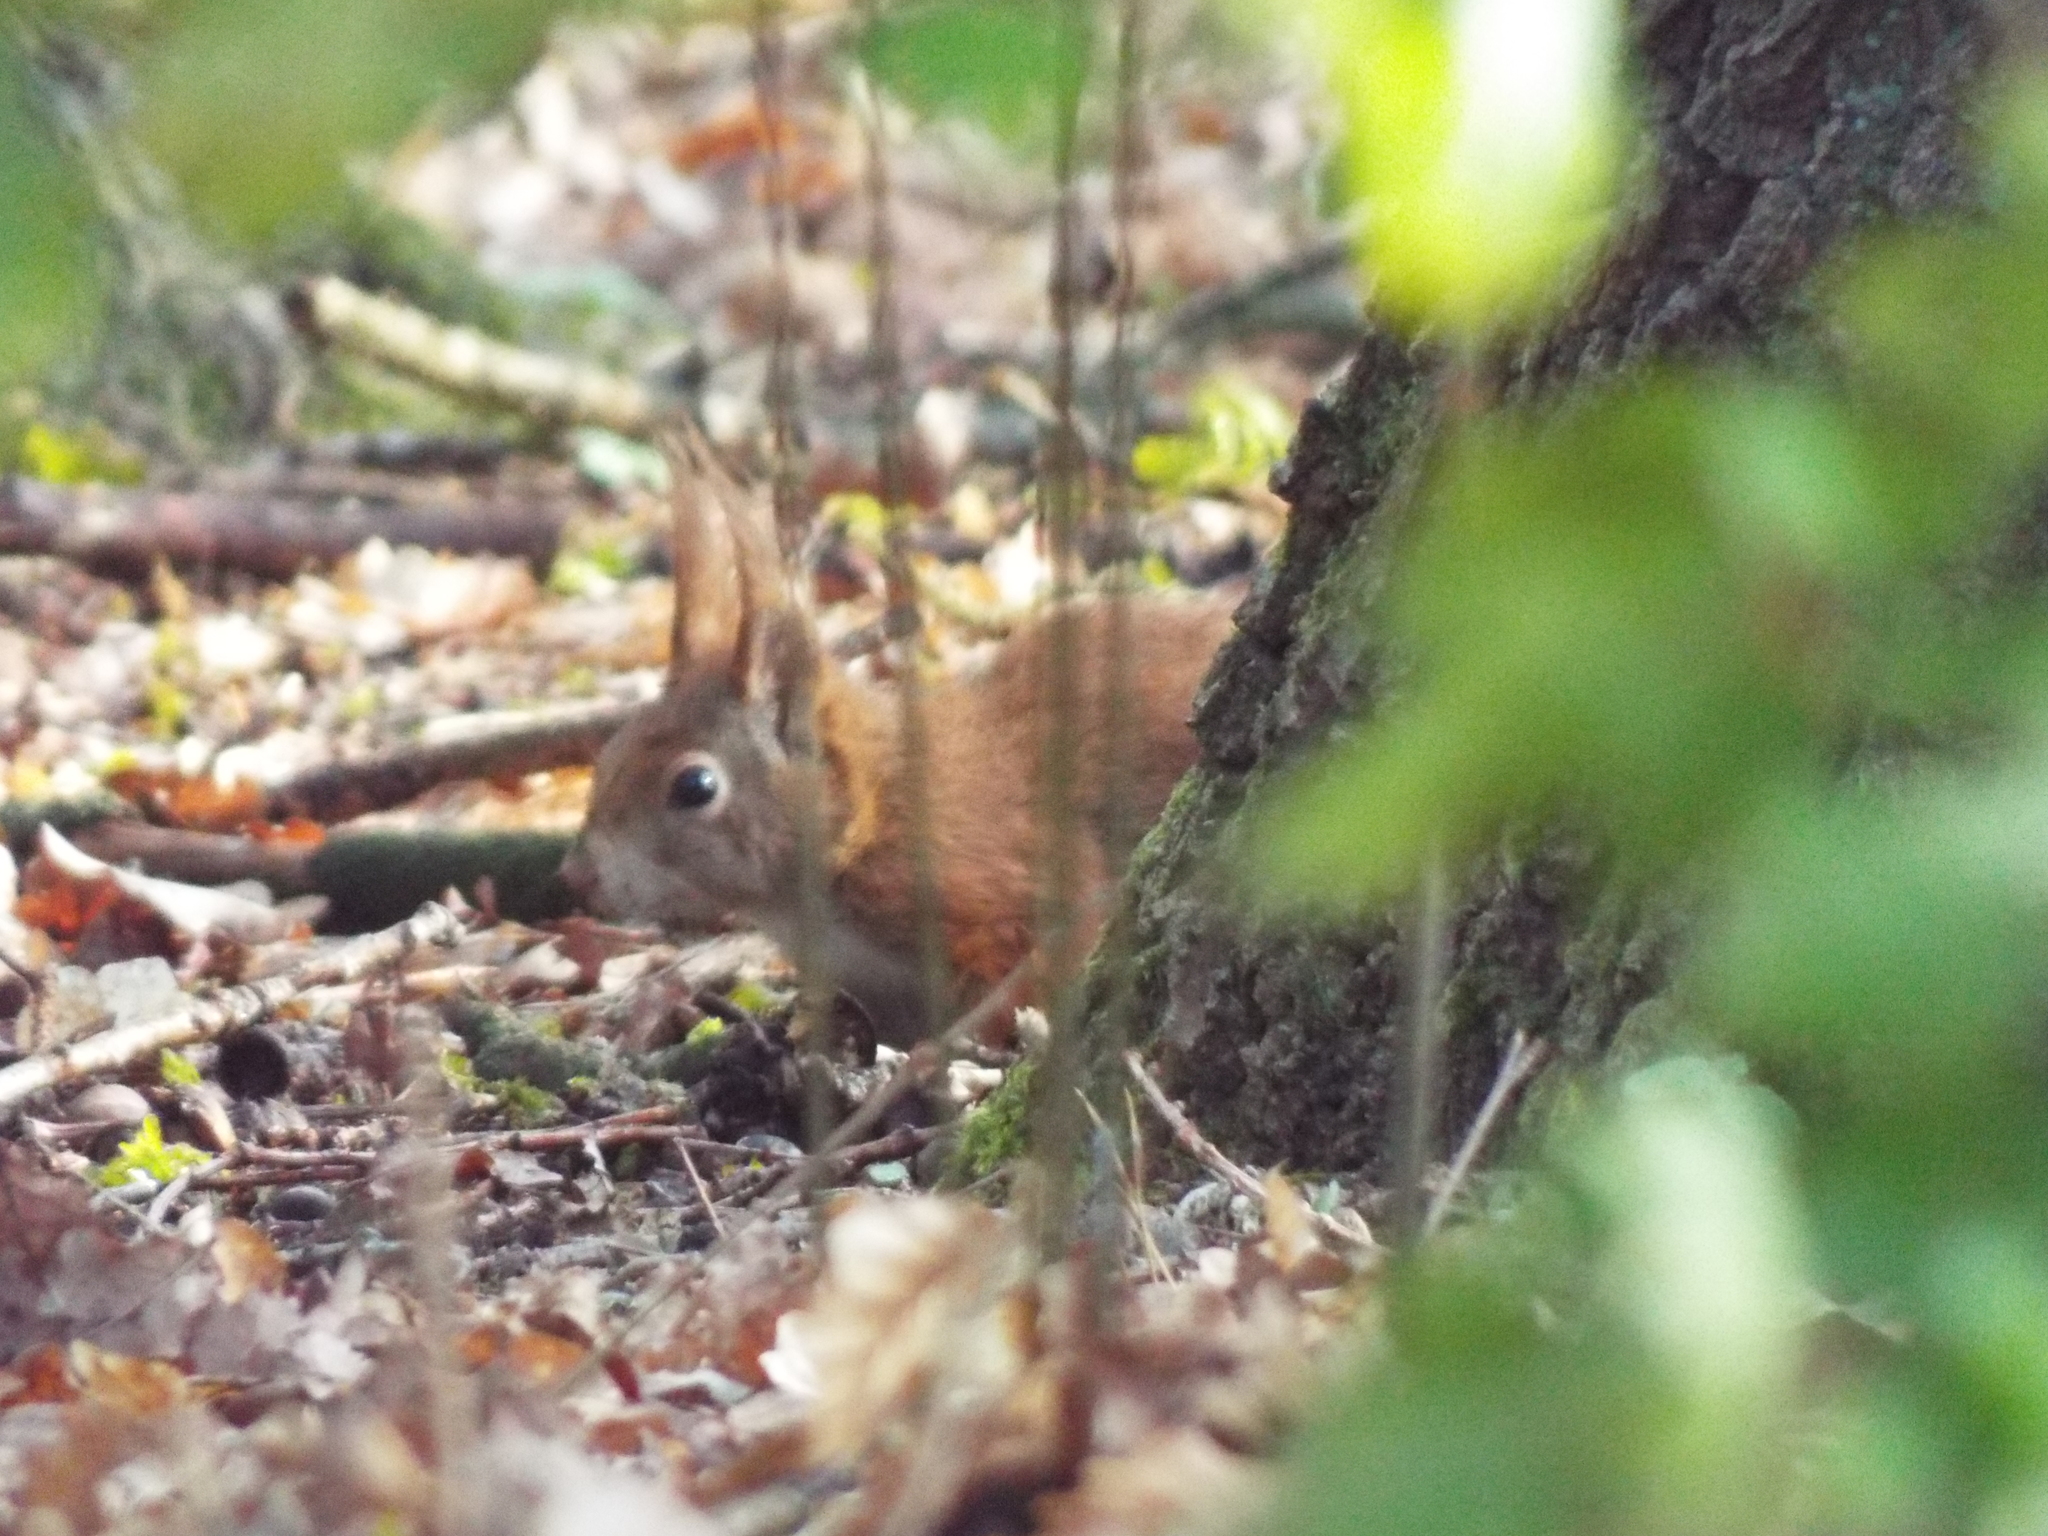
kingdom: Animalia
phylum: Chordata
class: Mammalia
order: Rodentia
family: Sciuridae
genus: Sciurus
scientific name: Sciurus vulgaris
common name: Eurasian red squirrel
